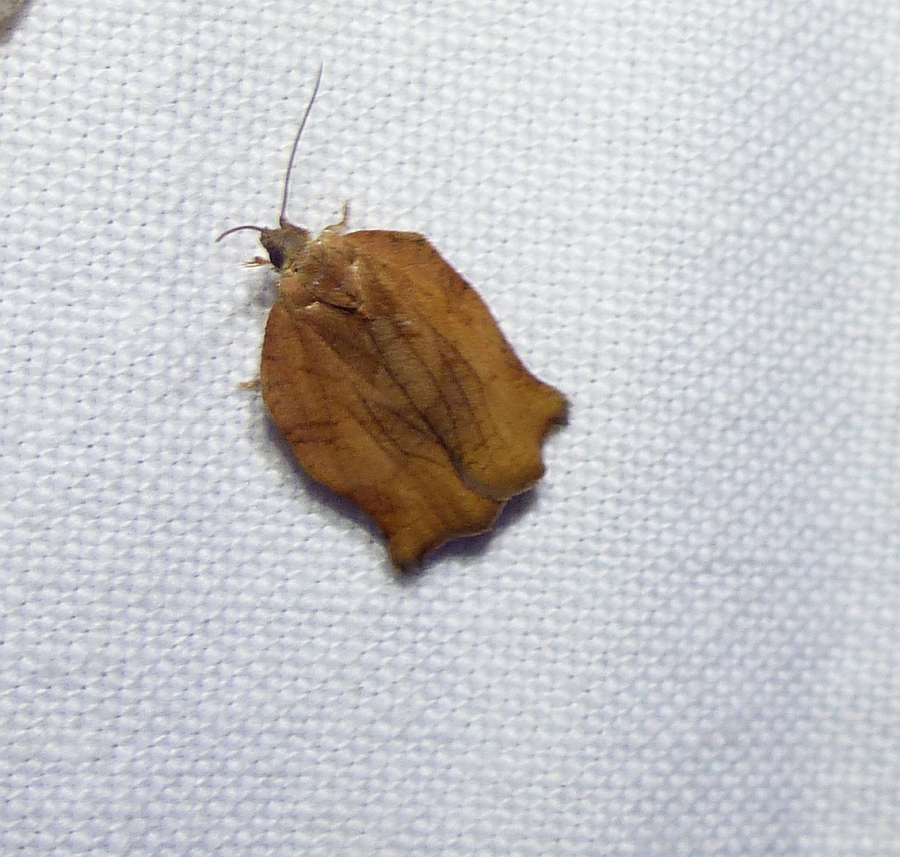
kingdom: Animalia
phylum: Arthropoda
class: Insecta
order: Lepidoptera
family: Tortricidae
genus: Archips
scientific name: Archips purpurana
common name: Omnivorous leafroller
